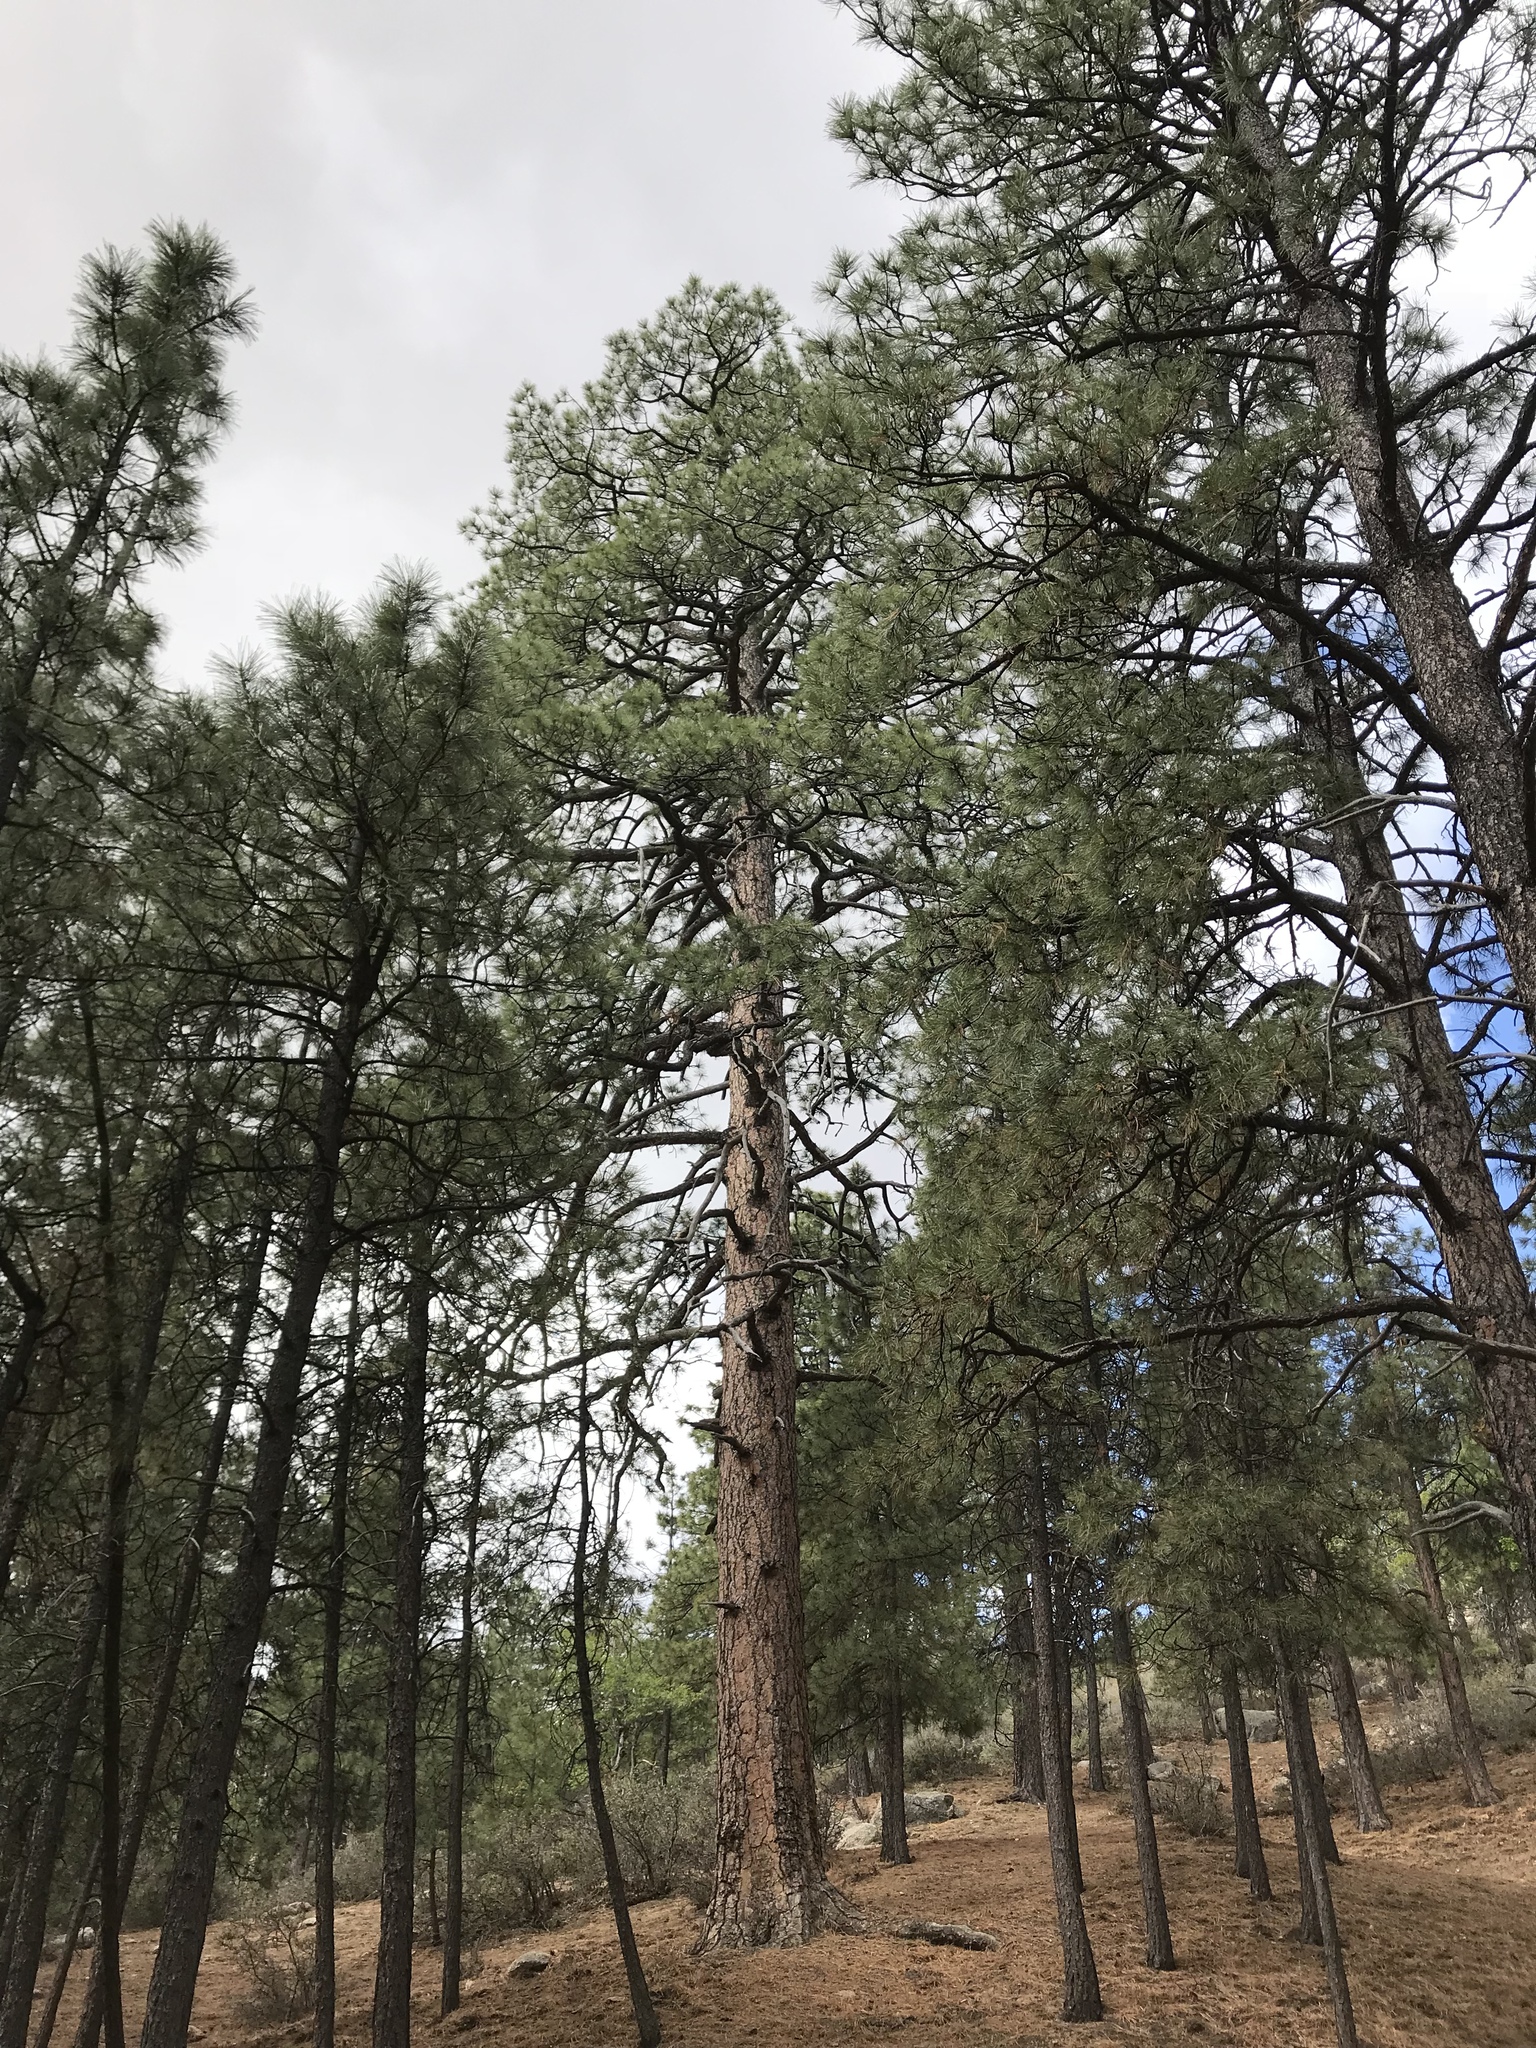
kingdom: Plantae
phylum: Tracheophyta
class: Pinopsida
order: Pinales
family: Pinaceae
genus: Pinus
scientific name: Pinus ponderosa
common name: Western yellow-pine
